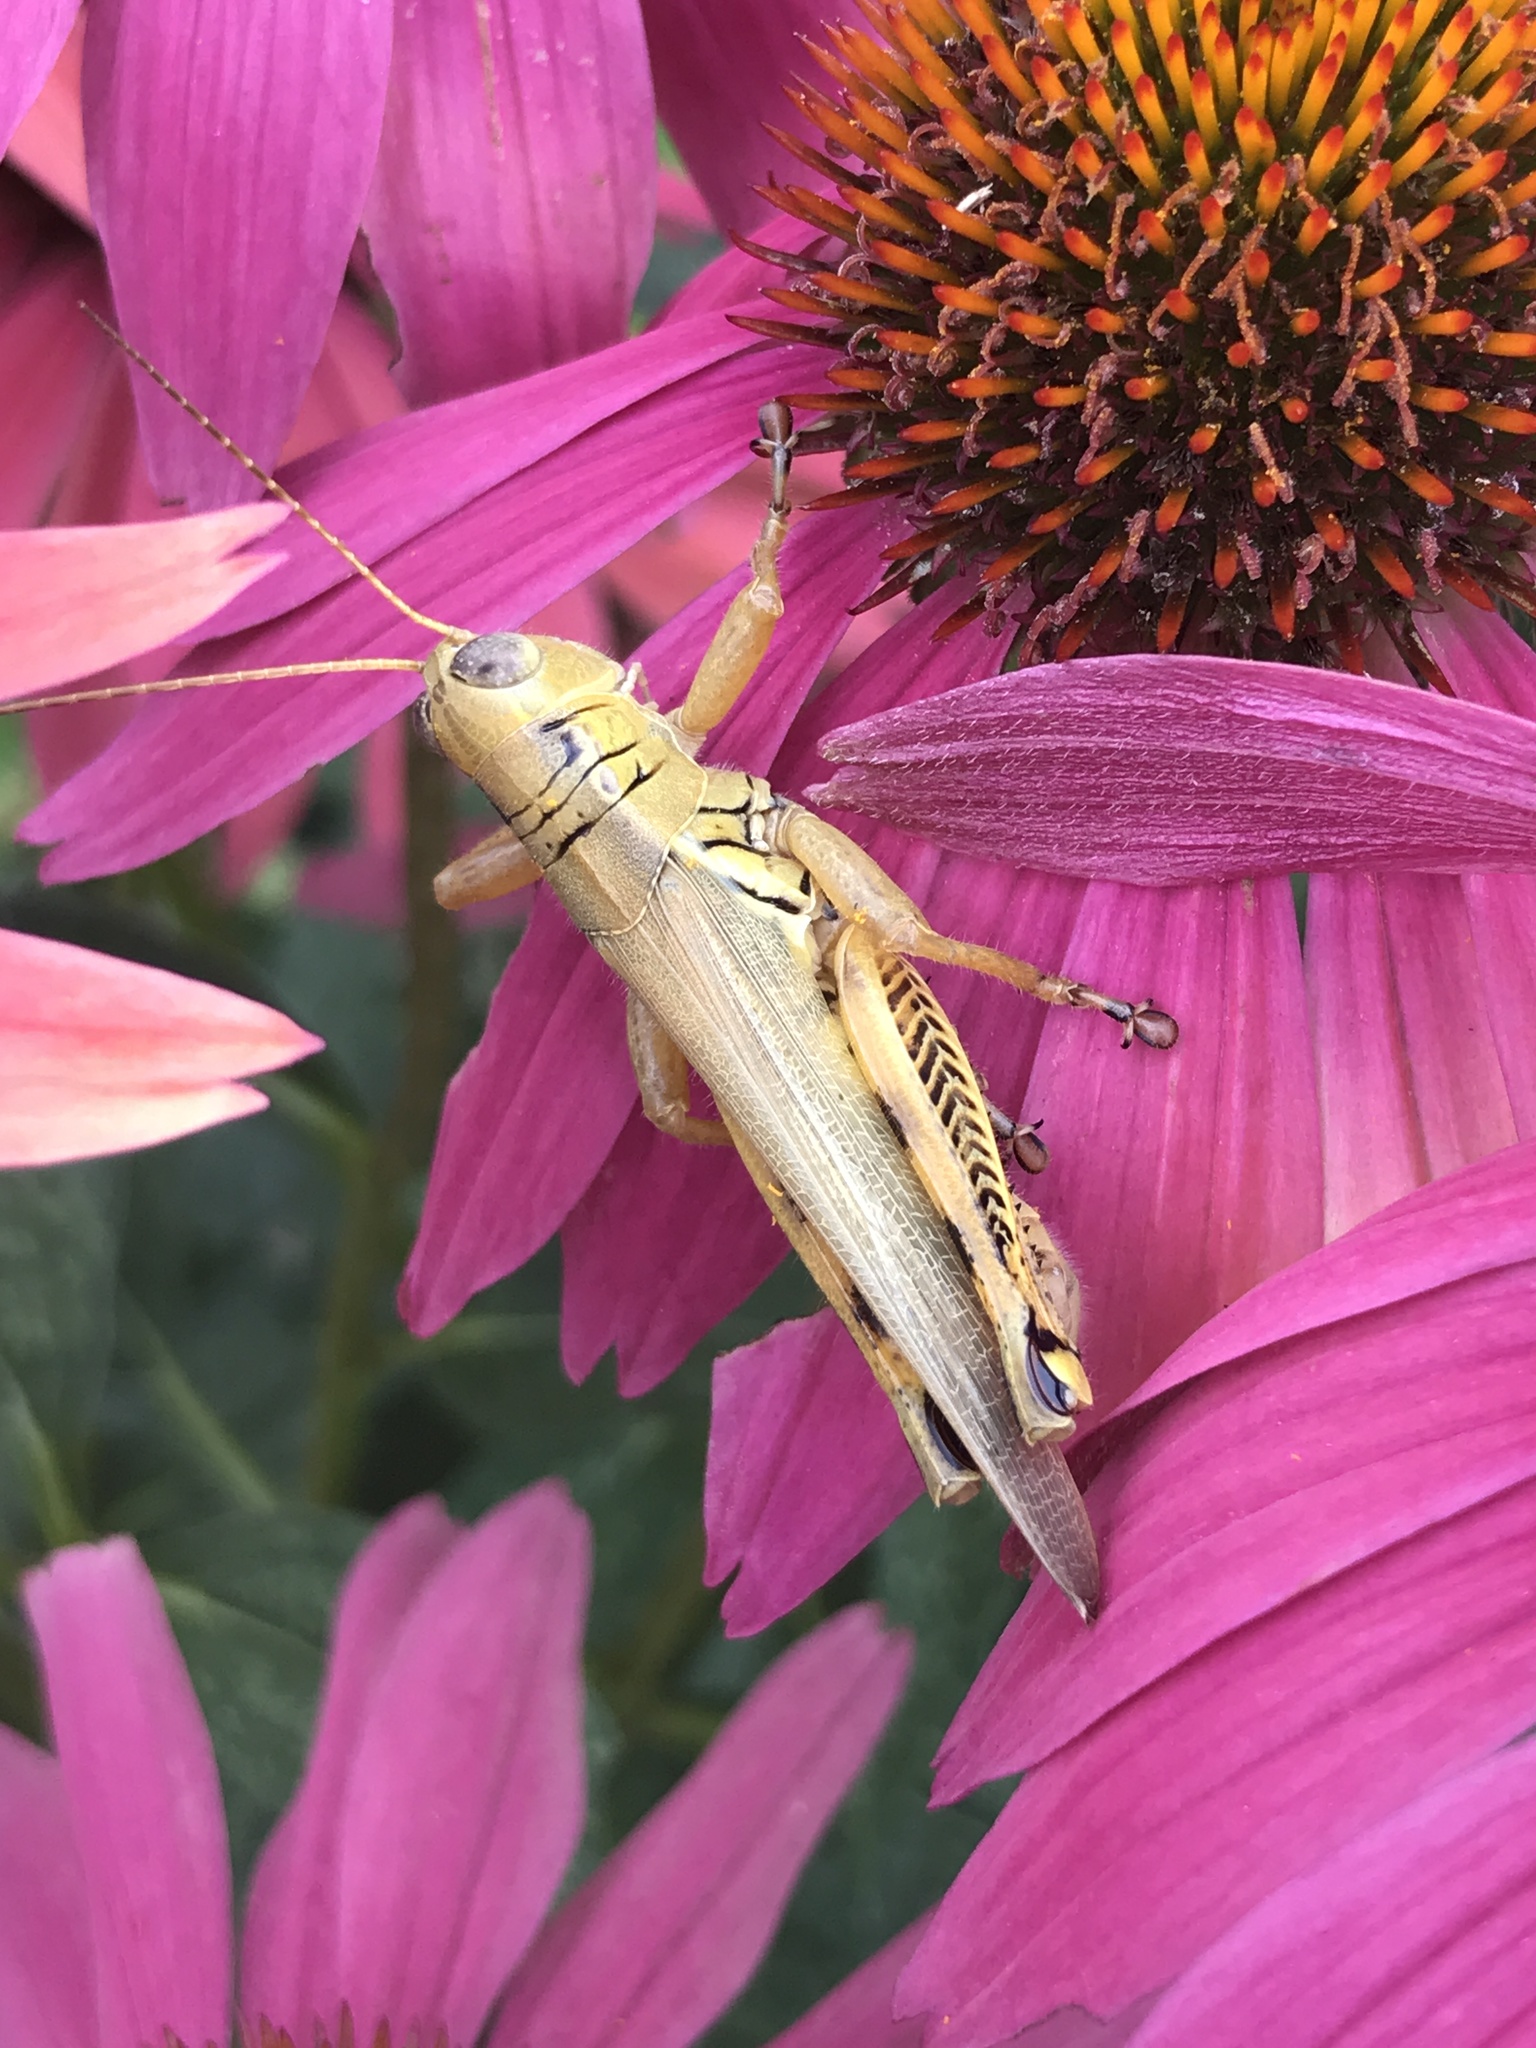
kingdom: Animalia
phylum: Arthropoda
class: Insecta
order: Orthoptera
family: Acrididae
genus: Melanoplus
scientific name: Melanoplus differentialis
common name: Differential grasshopper
